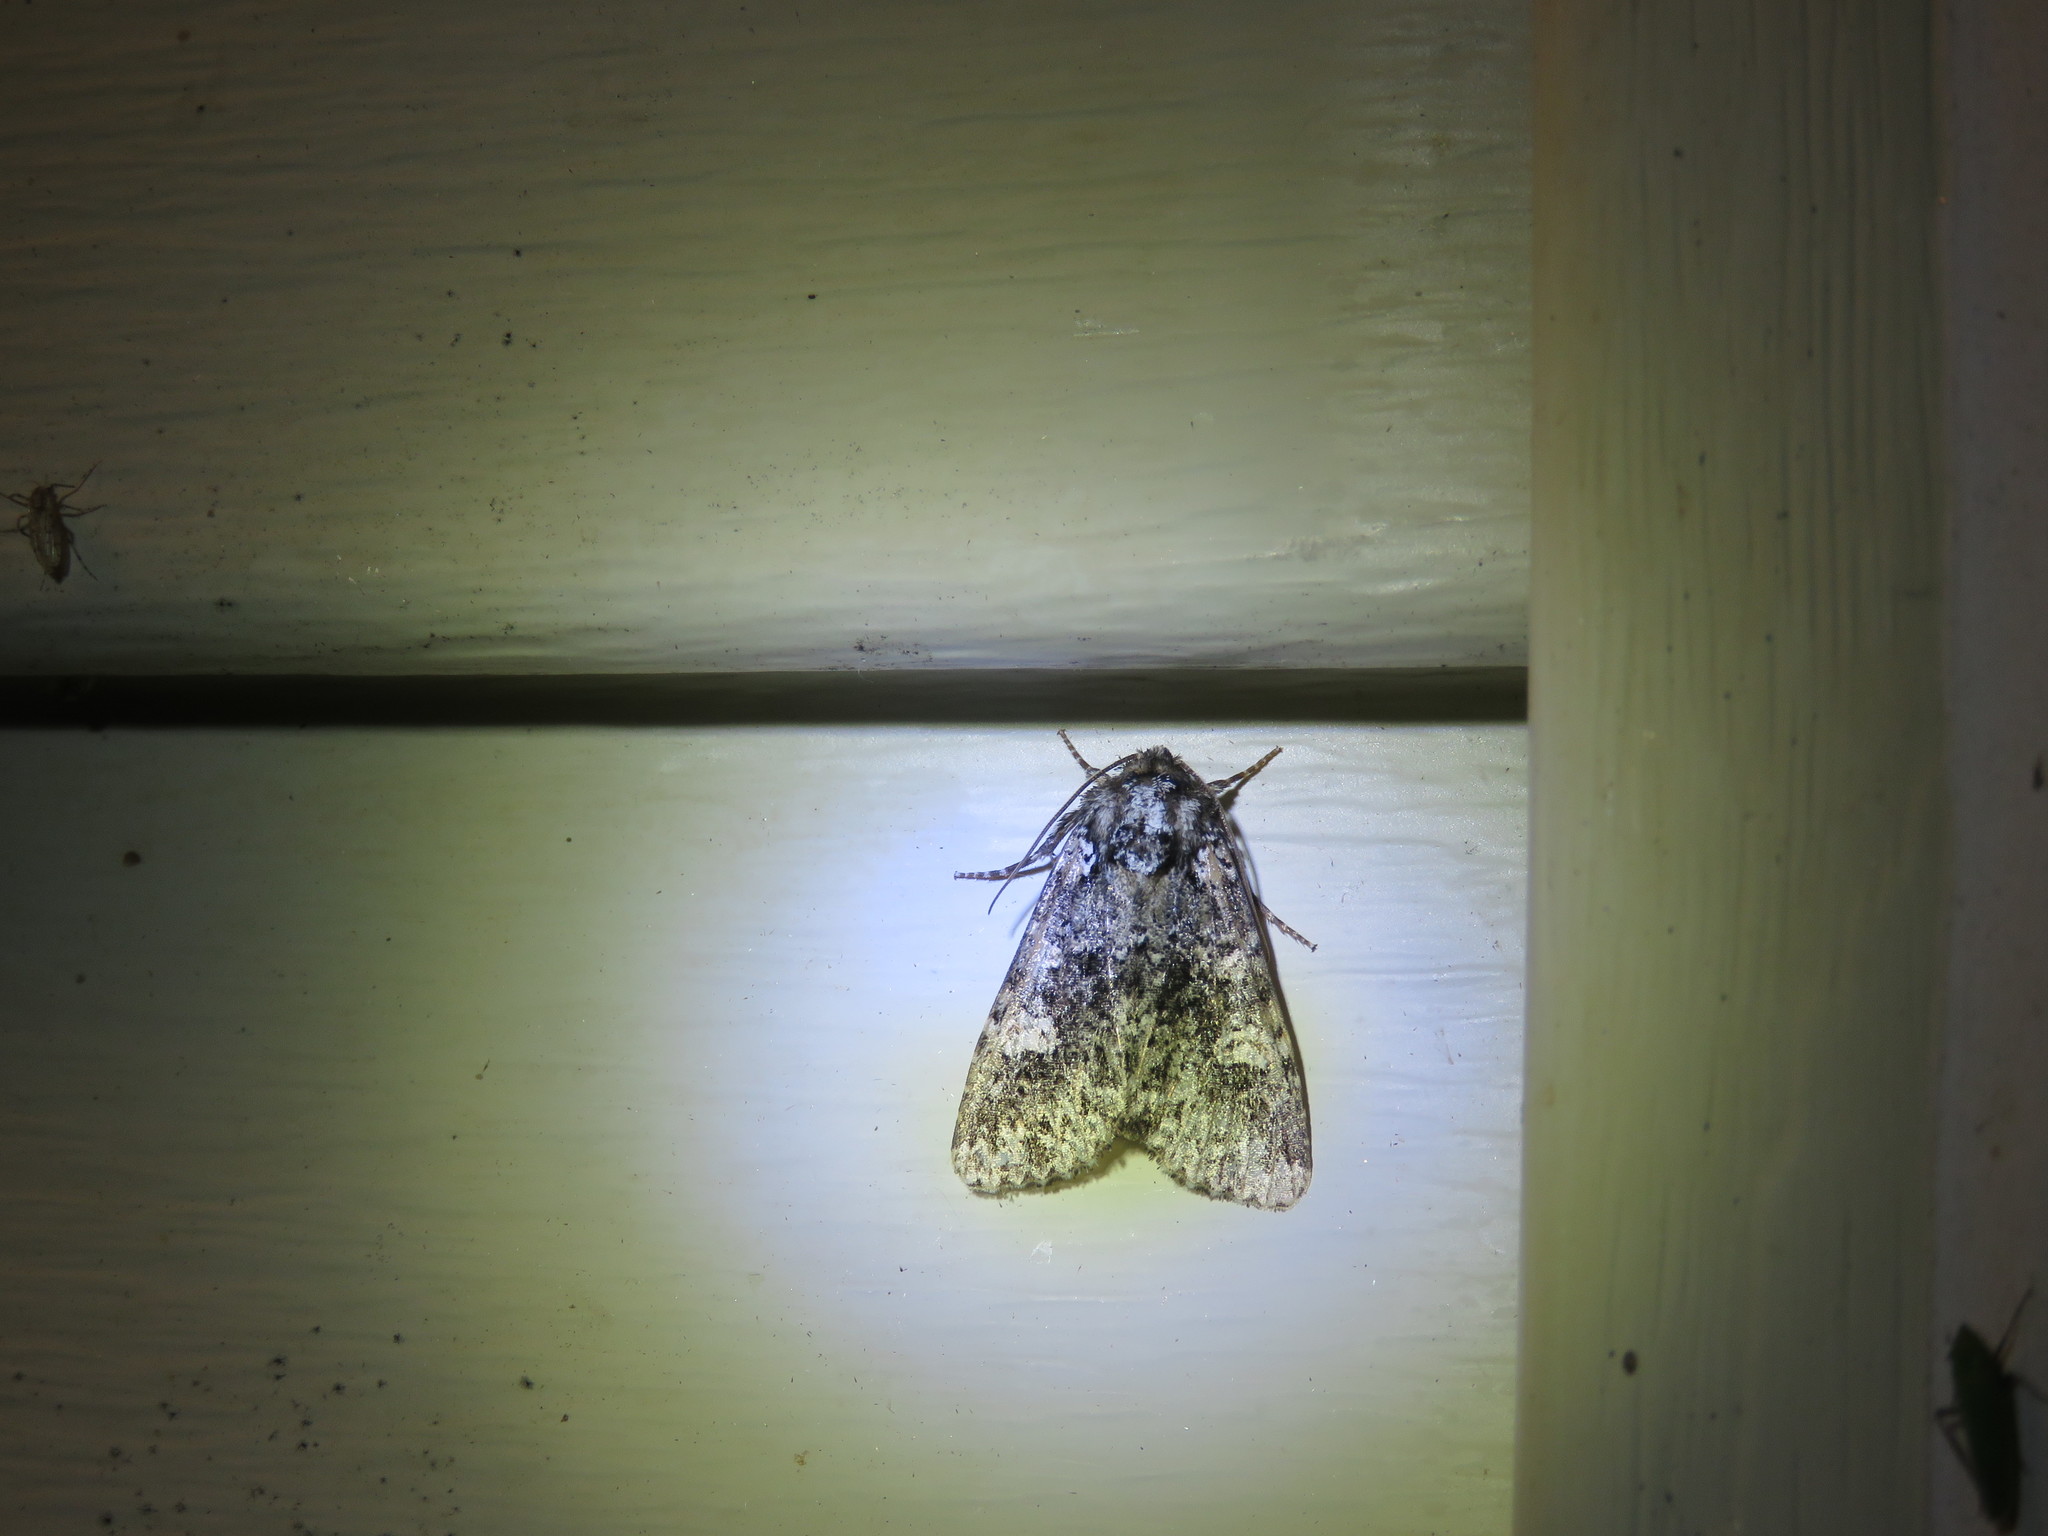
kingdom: Animalia
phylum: Arthropoda
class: Insecta
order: Lepidoptera
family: Noctuidae
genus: Melanchra
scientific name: Melanchra adjuncta
